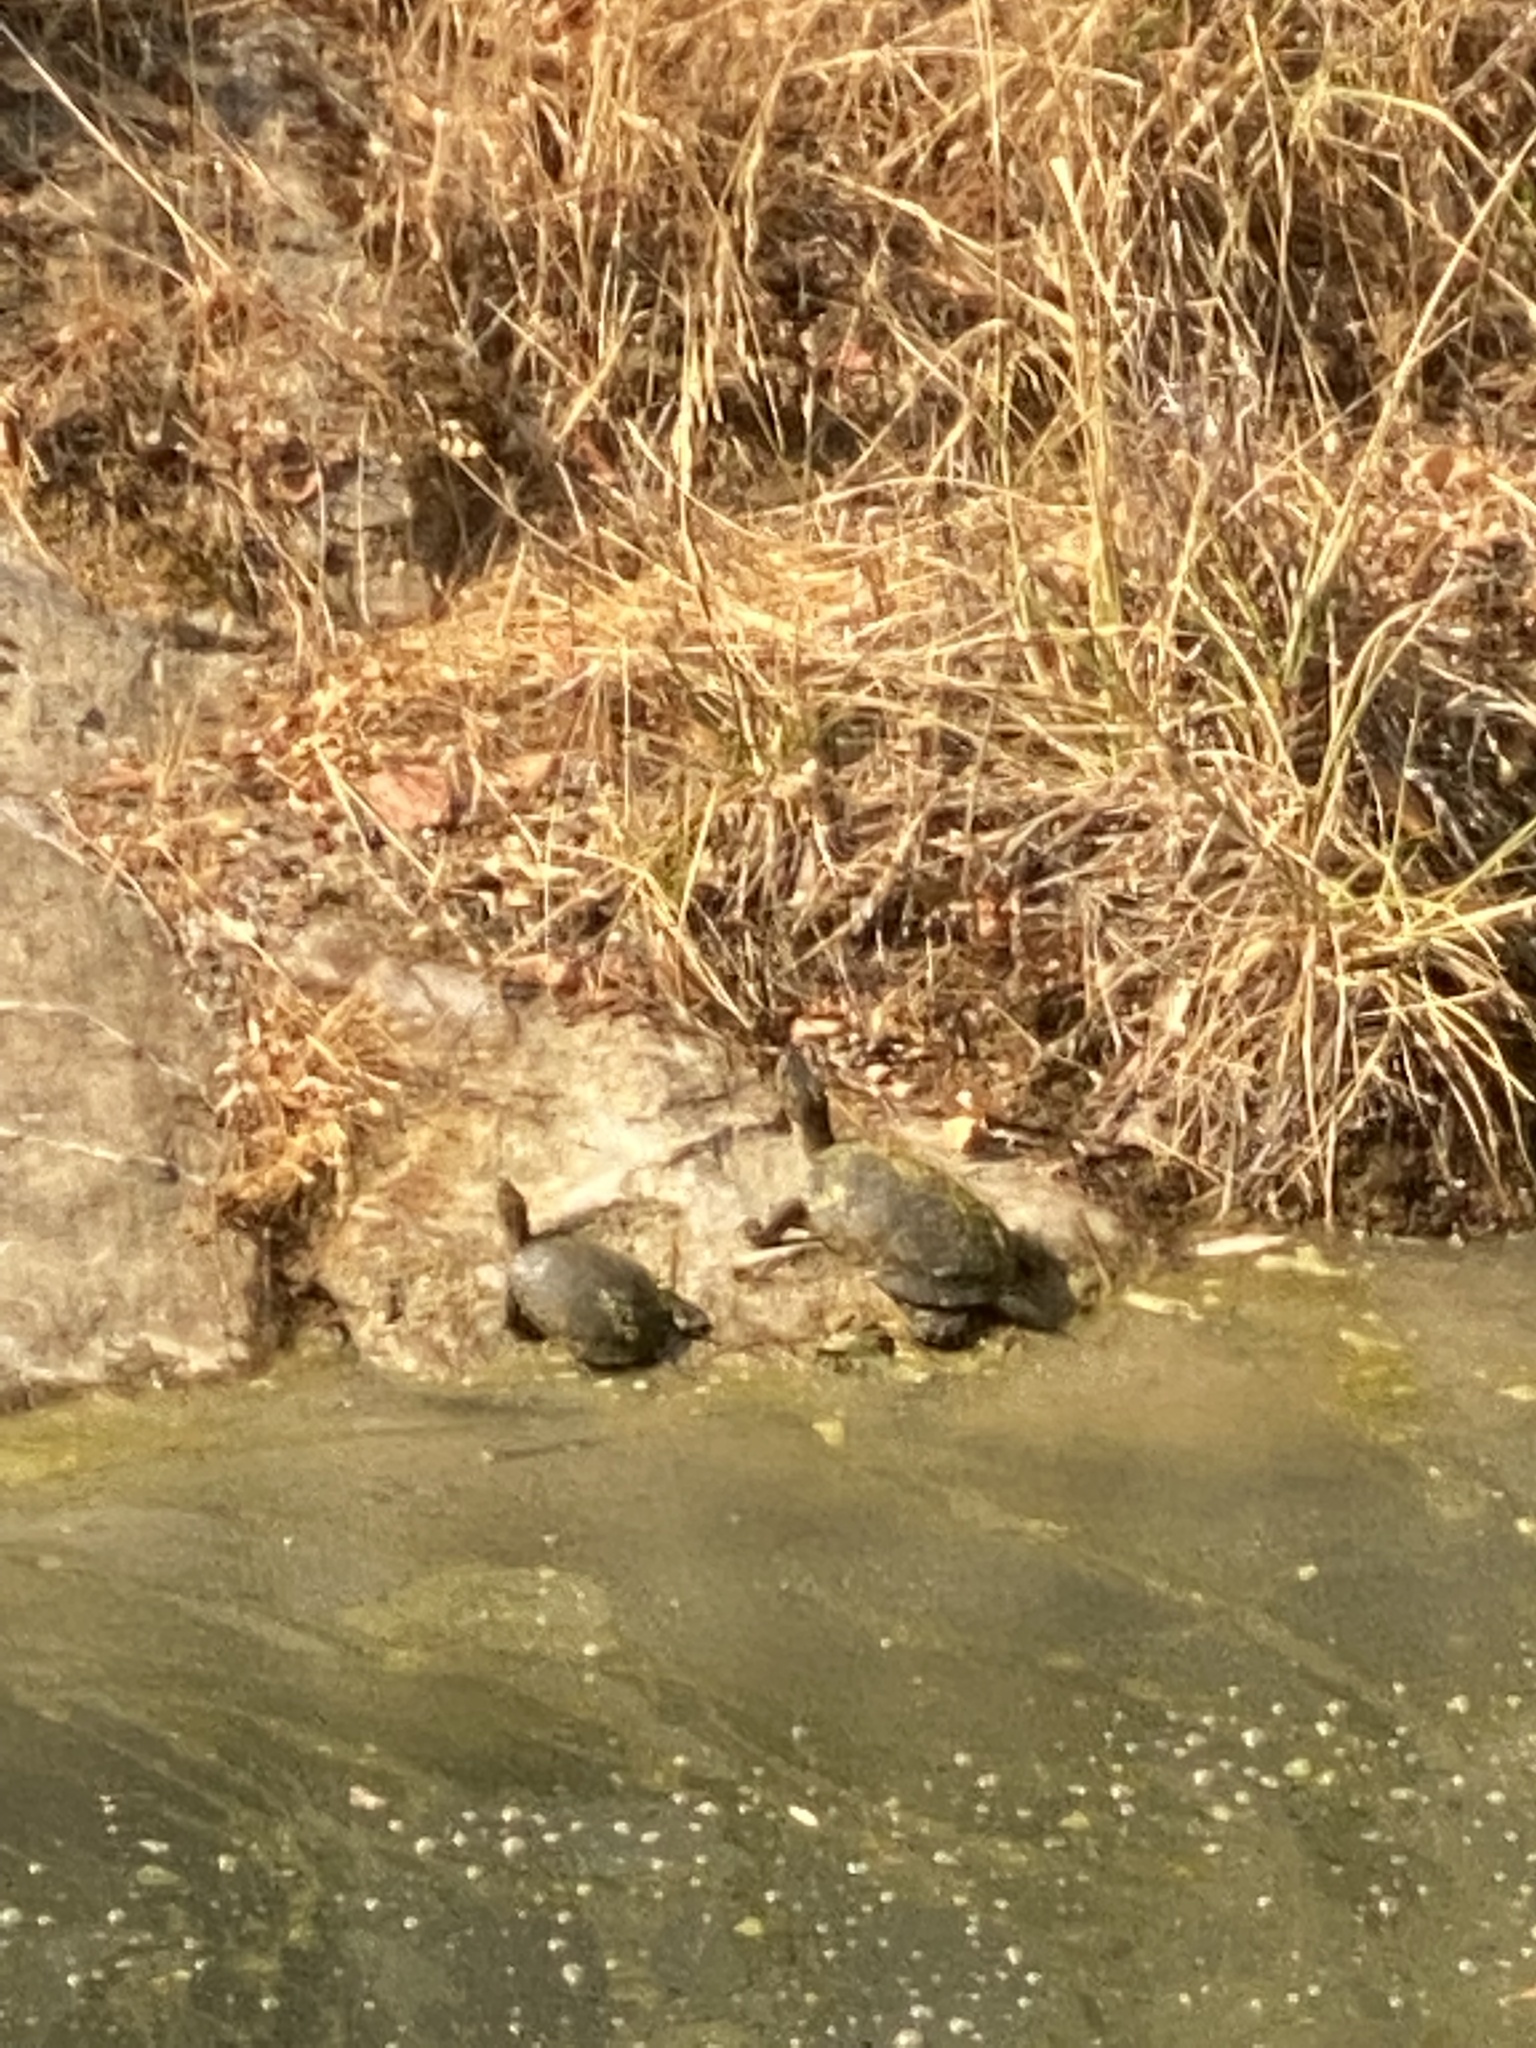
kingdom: Animalia
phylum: Chordata
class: Testudines
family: Emydidae
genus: Actinemys
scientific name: Actinemys marmorata
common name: Western pond turtle
